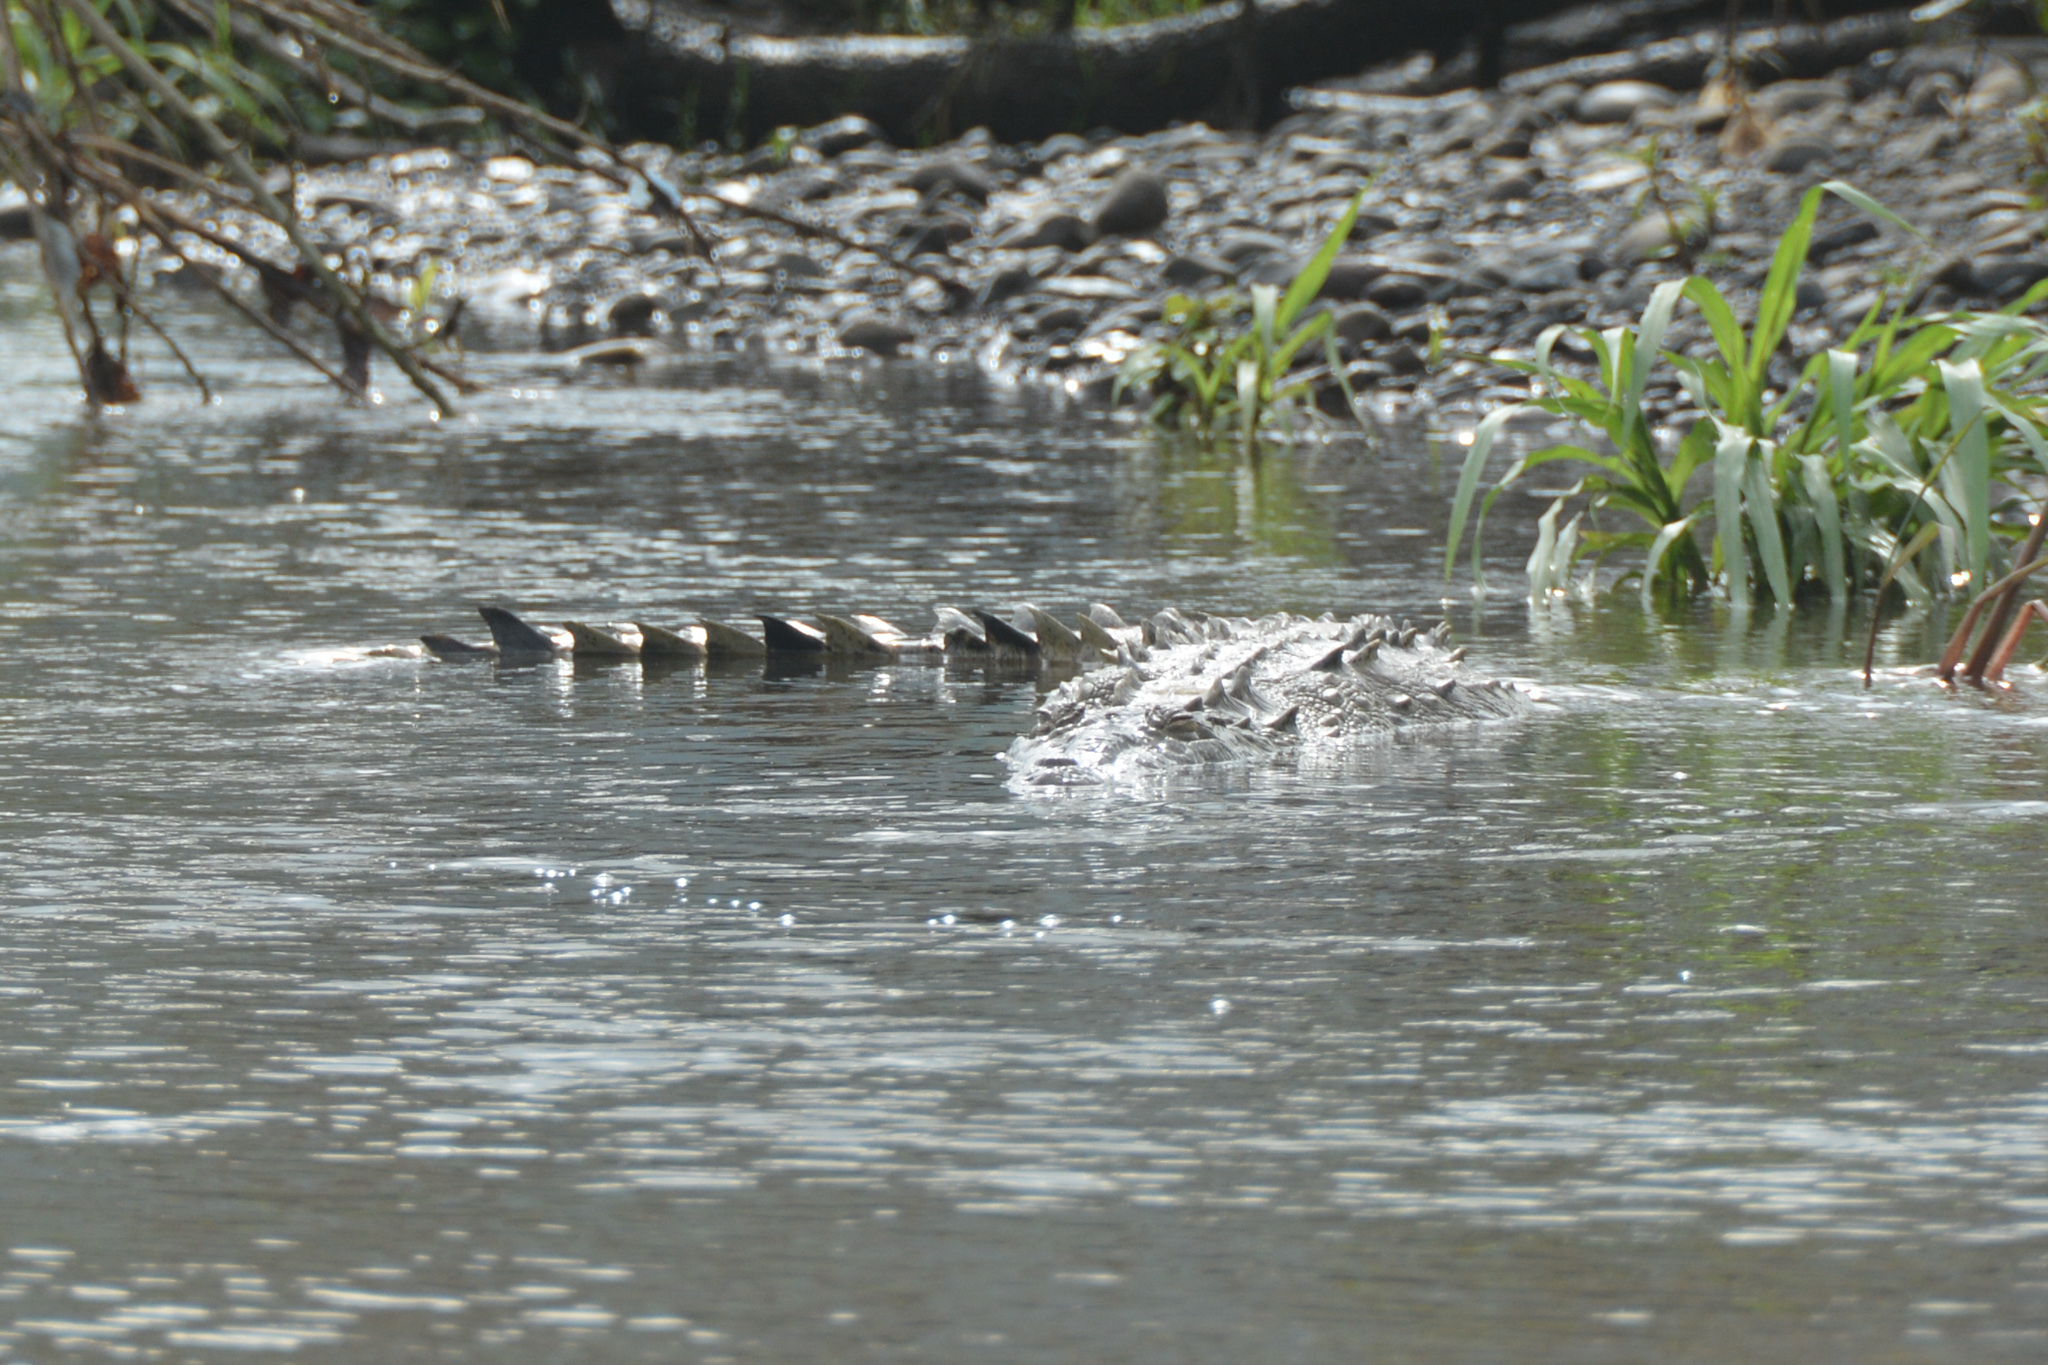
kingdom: Animalia
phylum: Chordata
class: Crocodylia
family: Crocodylidae
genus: Crocodylus
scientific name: Crocodylus acutus
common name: American crocodile
